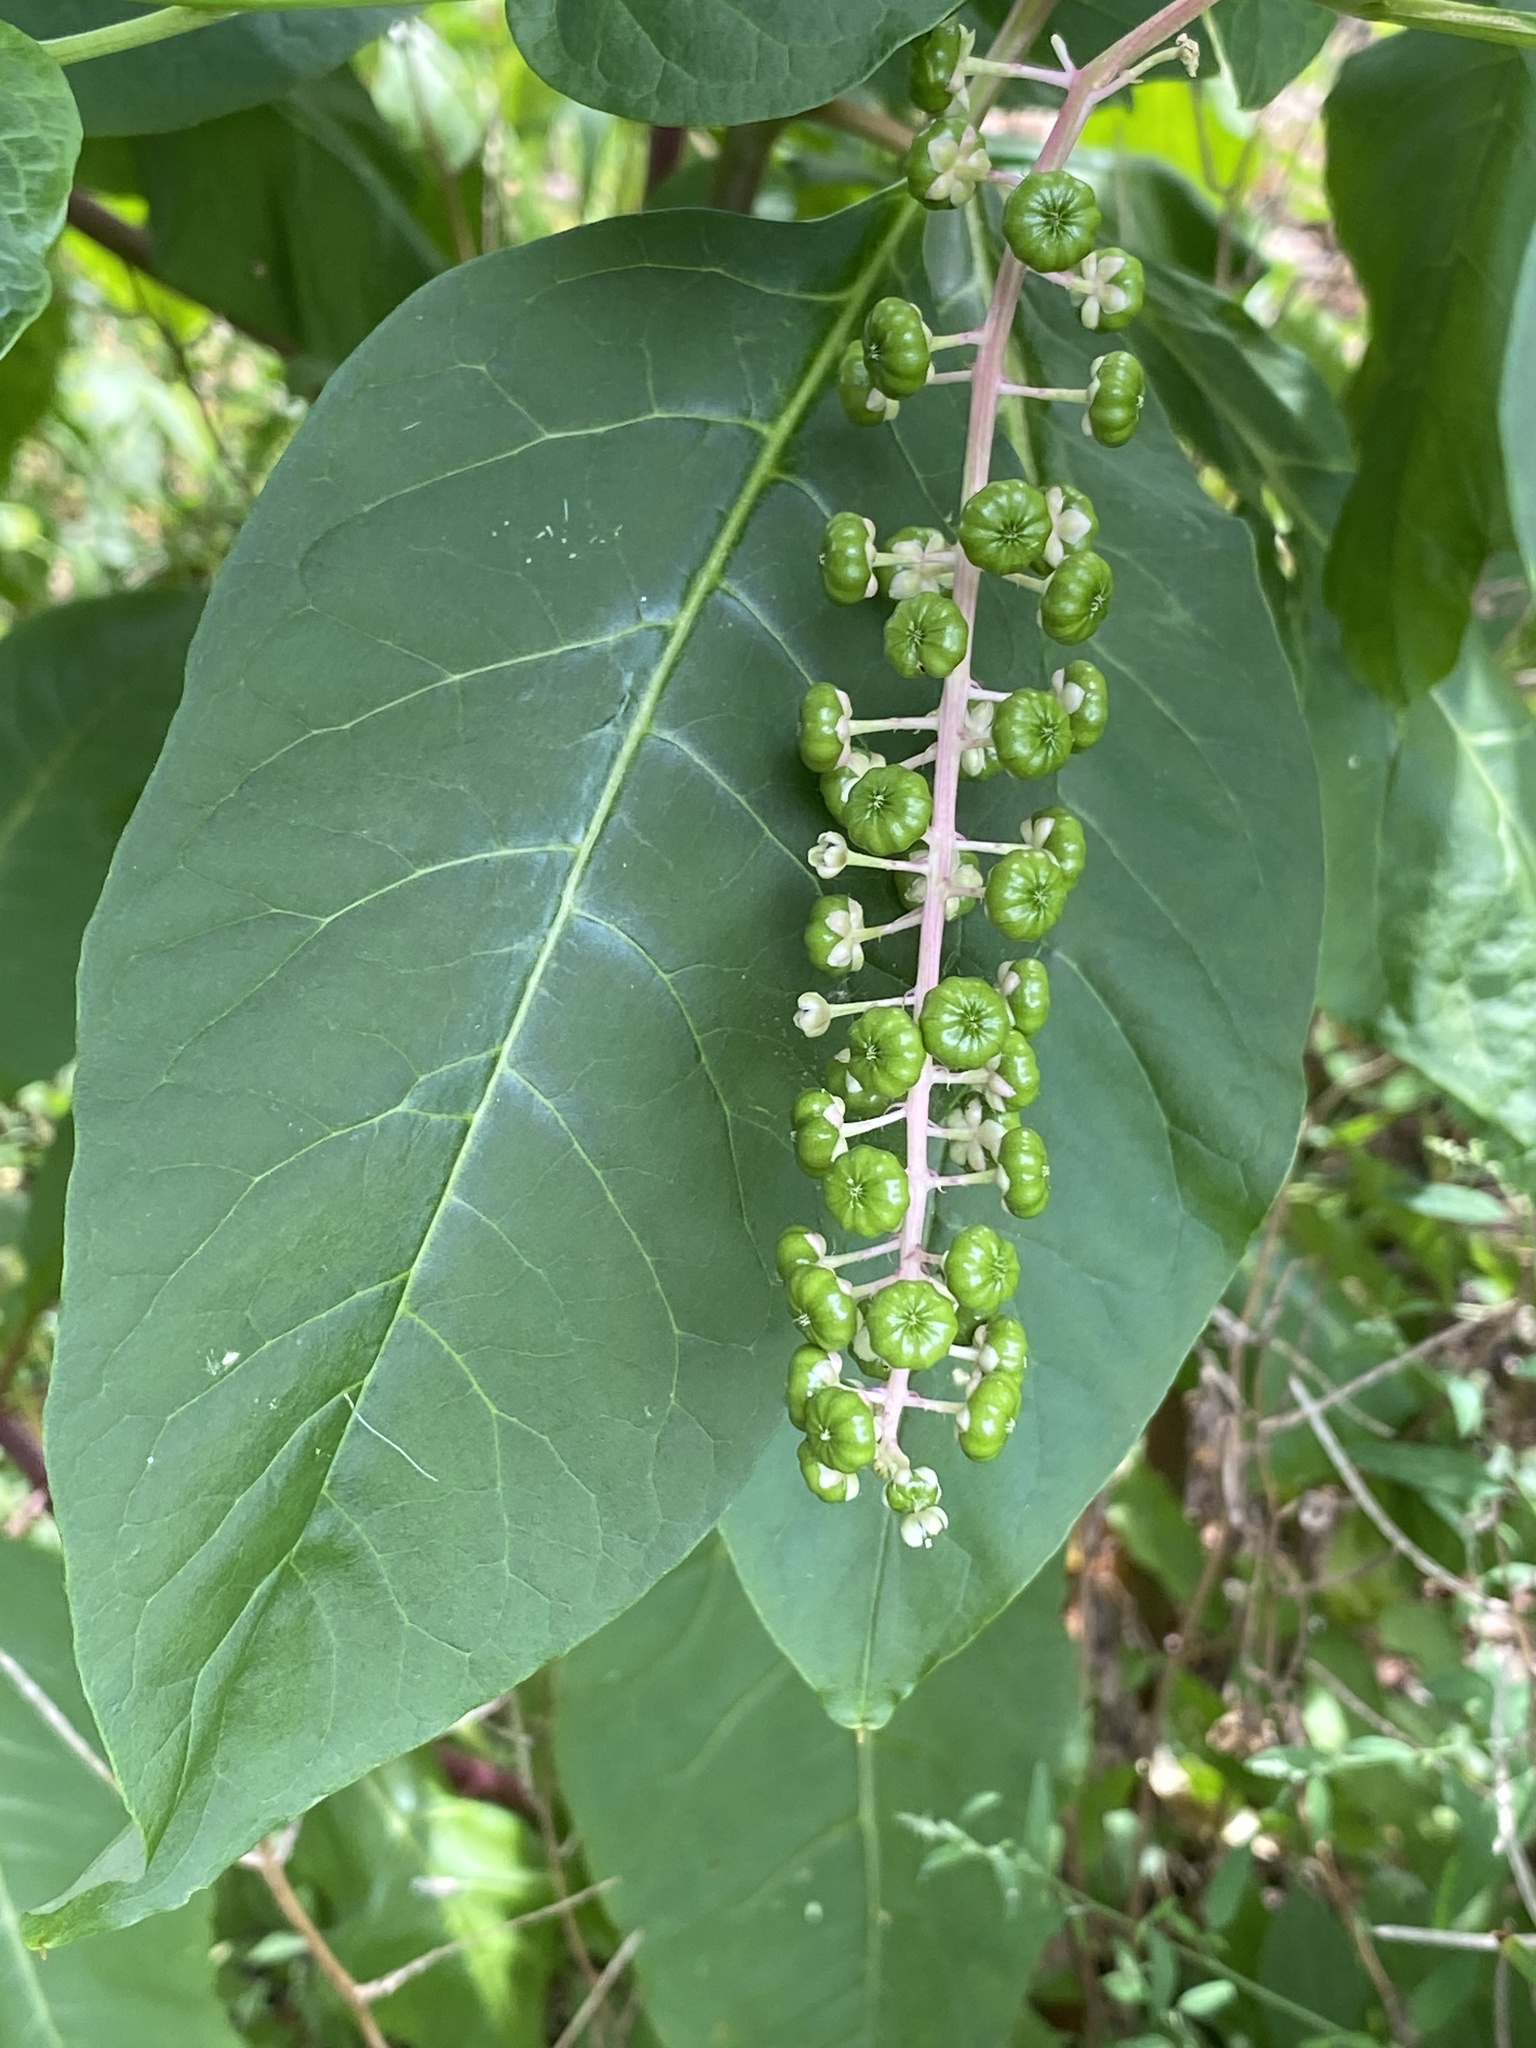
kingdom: Plantae
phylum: Tracheophyta
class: Magnoliopsida
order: Caryophyllales
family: Phytolaccaceae
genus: Phytolacca
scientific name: Phytolacca americana
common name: American pokeweed
